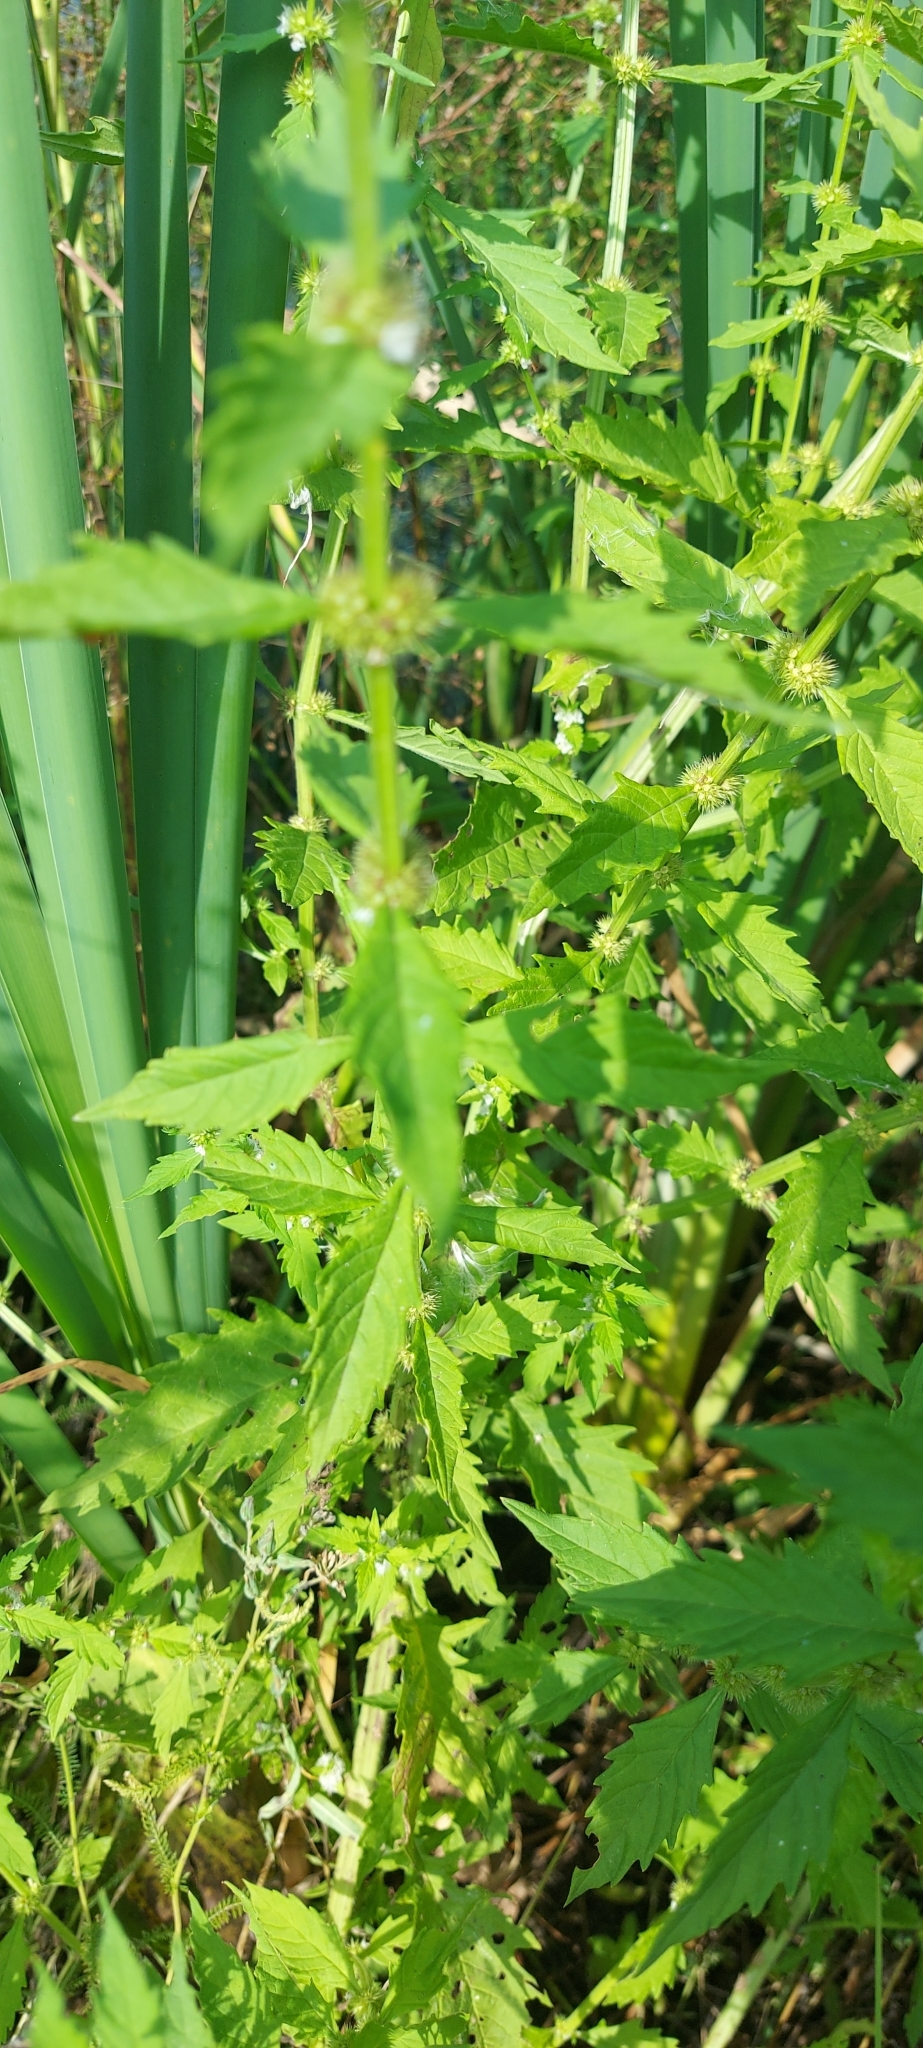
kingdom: Plantae
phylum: Tracheophyta
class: Magnoliopsida
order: Lamiales
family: Lamiaceae
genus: Lycopus
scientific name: Lycopus europaeus
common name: European bugleweed
